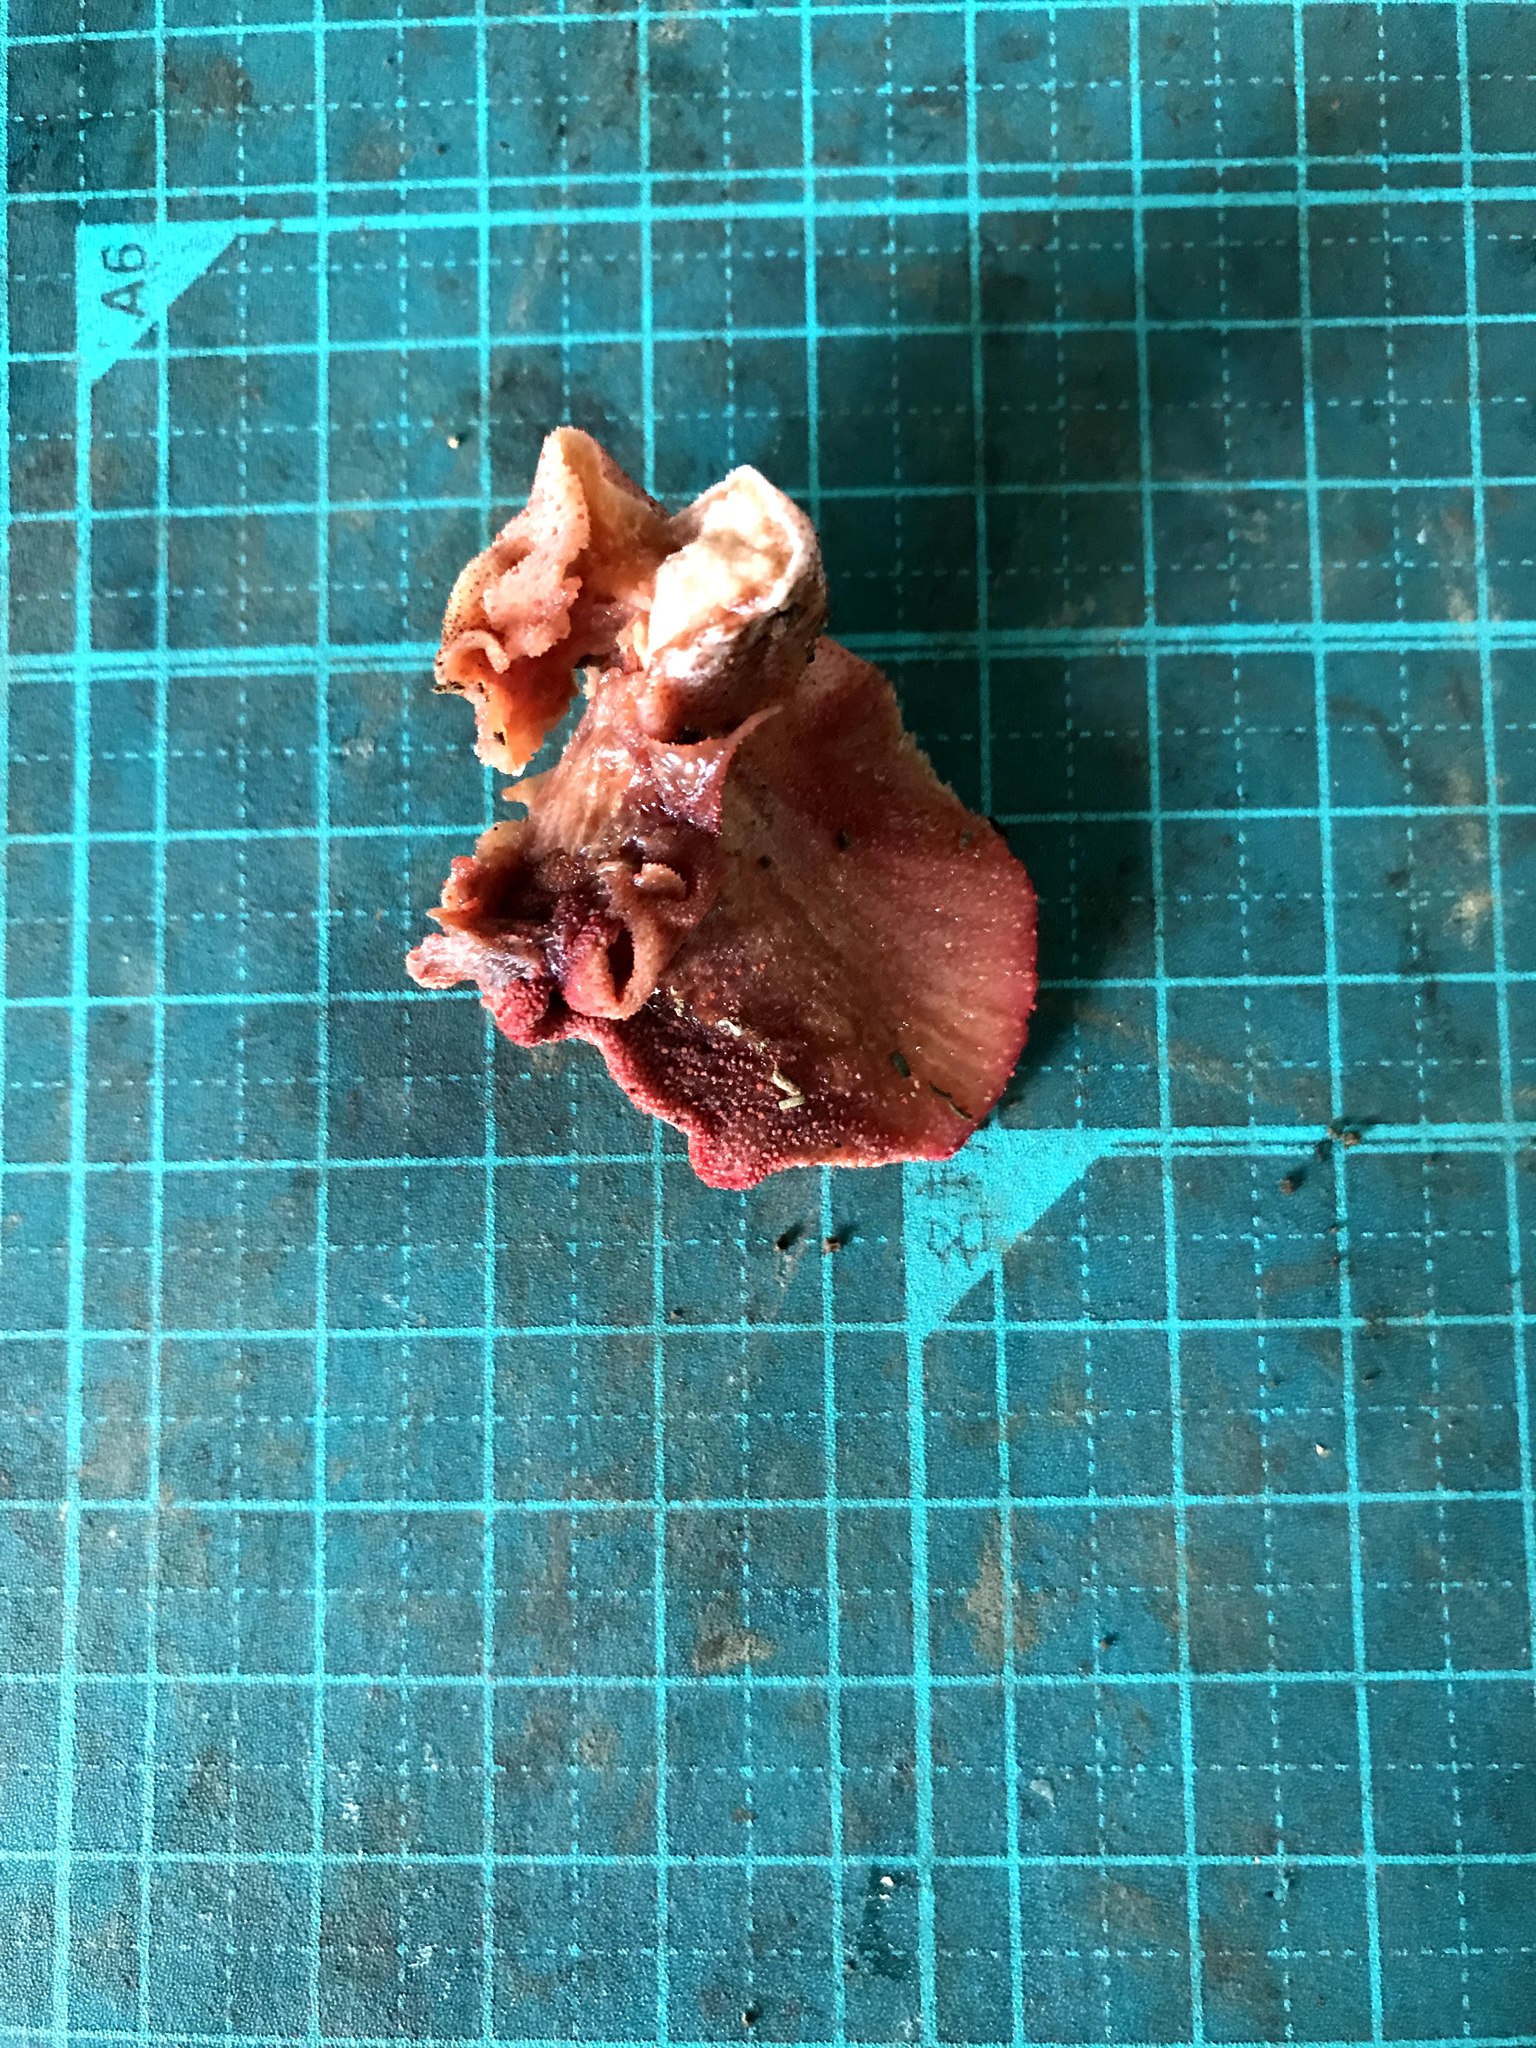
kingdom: Fungi
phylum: Basidiomycota
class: Agaricomycetes
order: Agaricales
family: Fistulinaceae
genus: Fistulina
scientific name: Fistulina hepatica
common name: Beef-steak fungus
